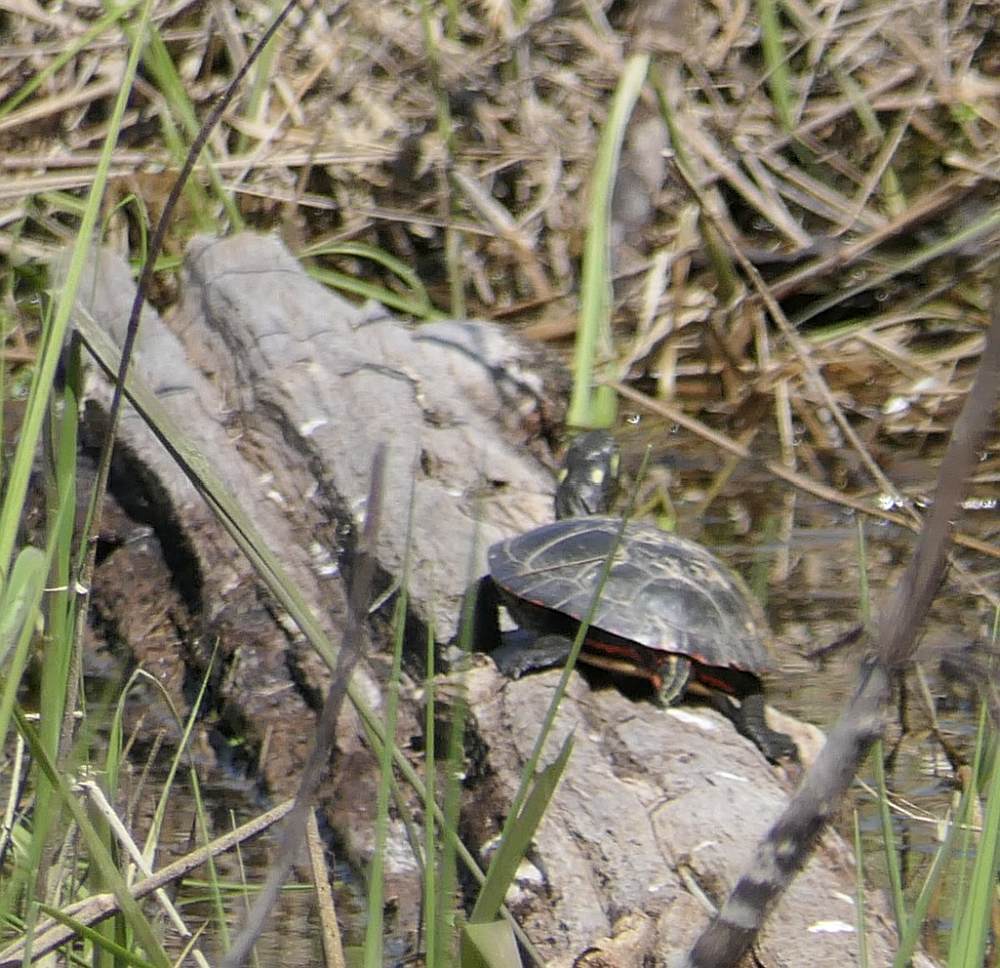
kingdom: Animalia
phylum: Chordata
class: Testudines
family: Emydidae
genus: Chrysemys
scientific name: Chrysemys picta
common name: Painted turtle
